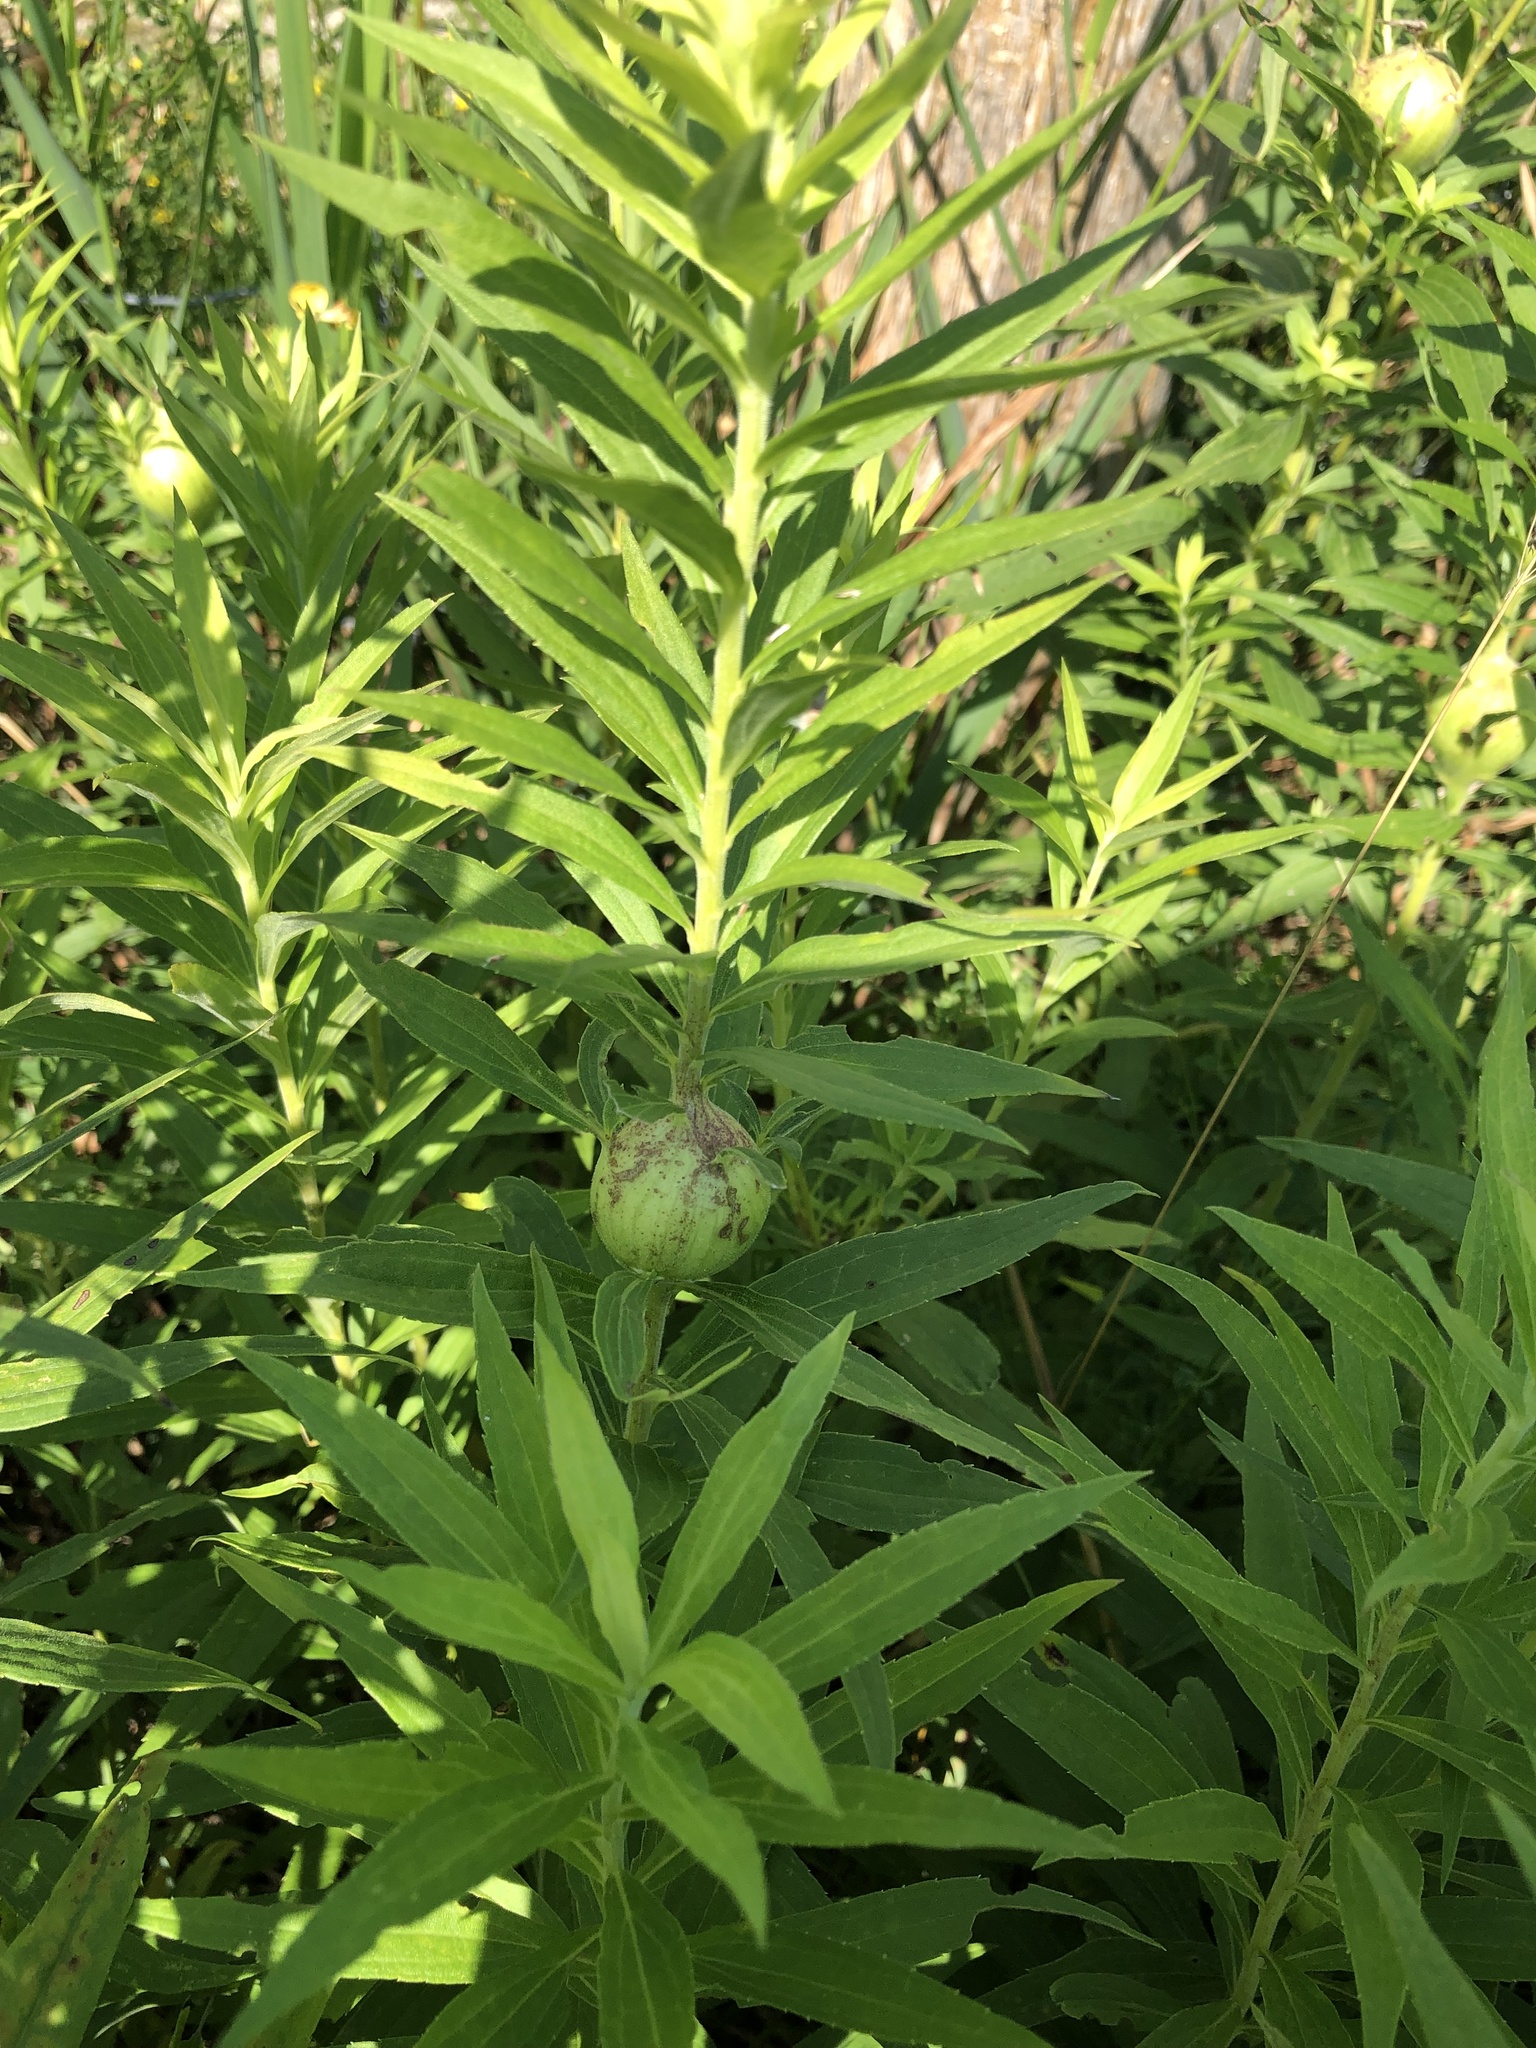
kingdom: Animalia
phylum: Arthropoda
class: Insecta
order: Diptera
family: Tephritidae
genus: Eurosta
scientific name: Eurosta solidaginis
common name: Goldenrod gall fly
